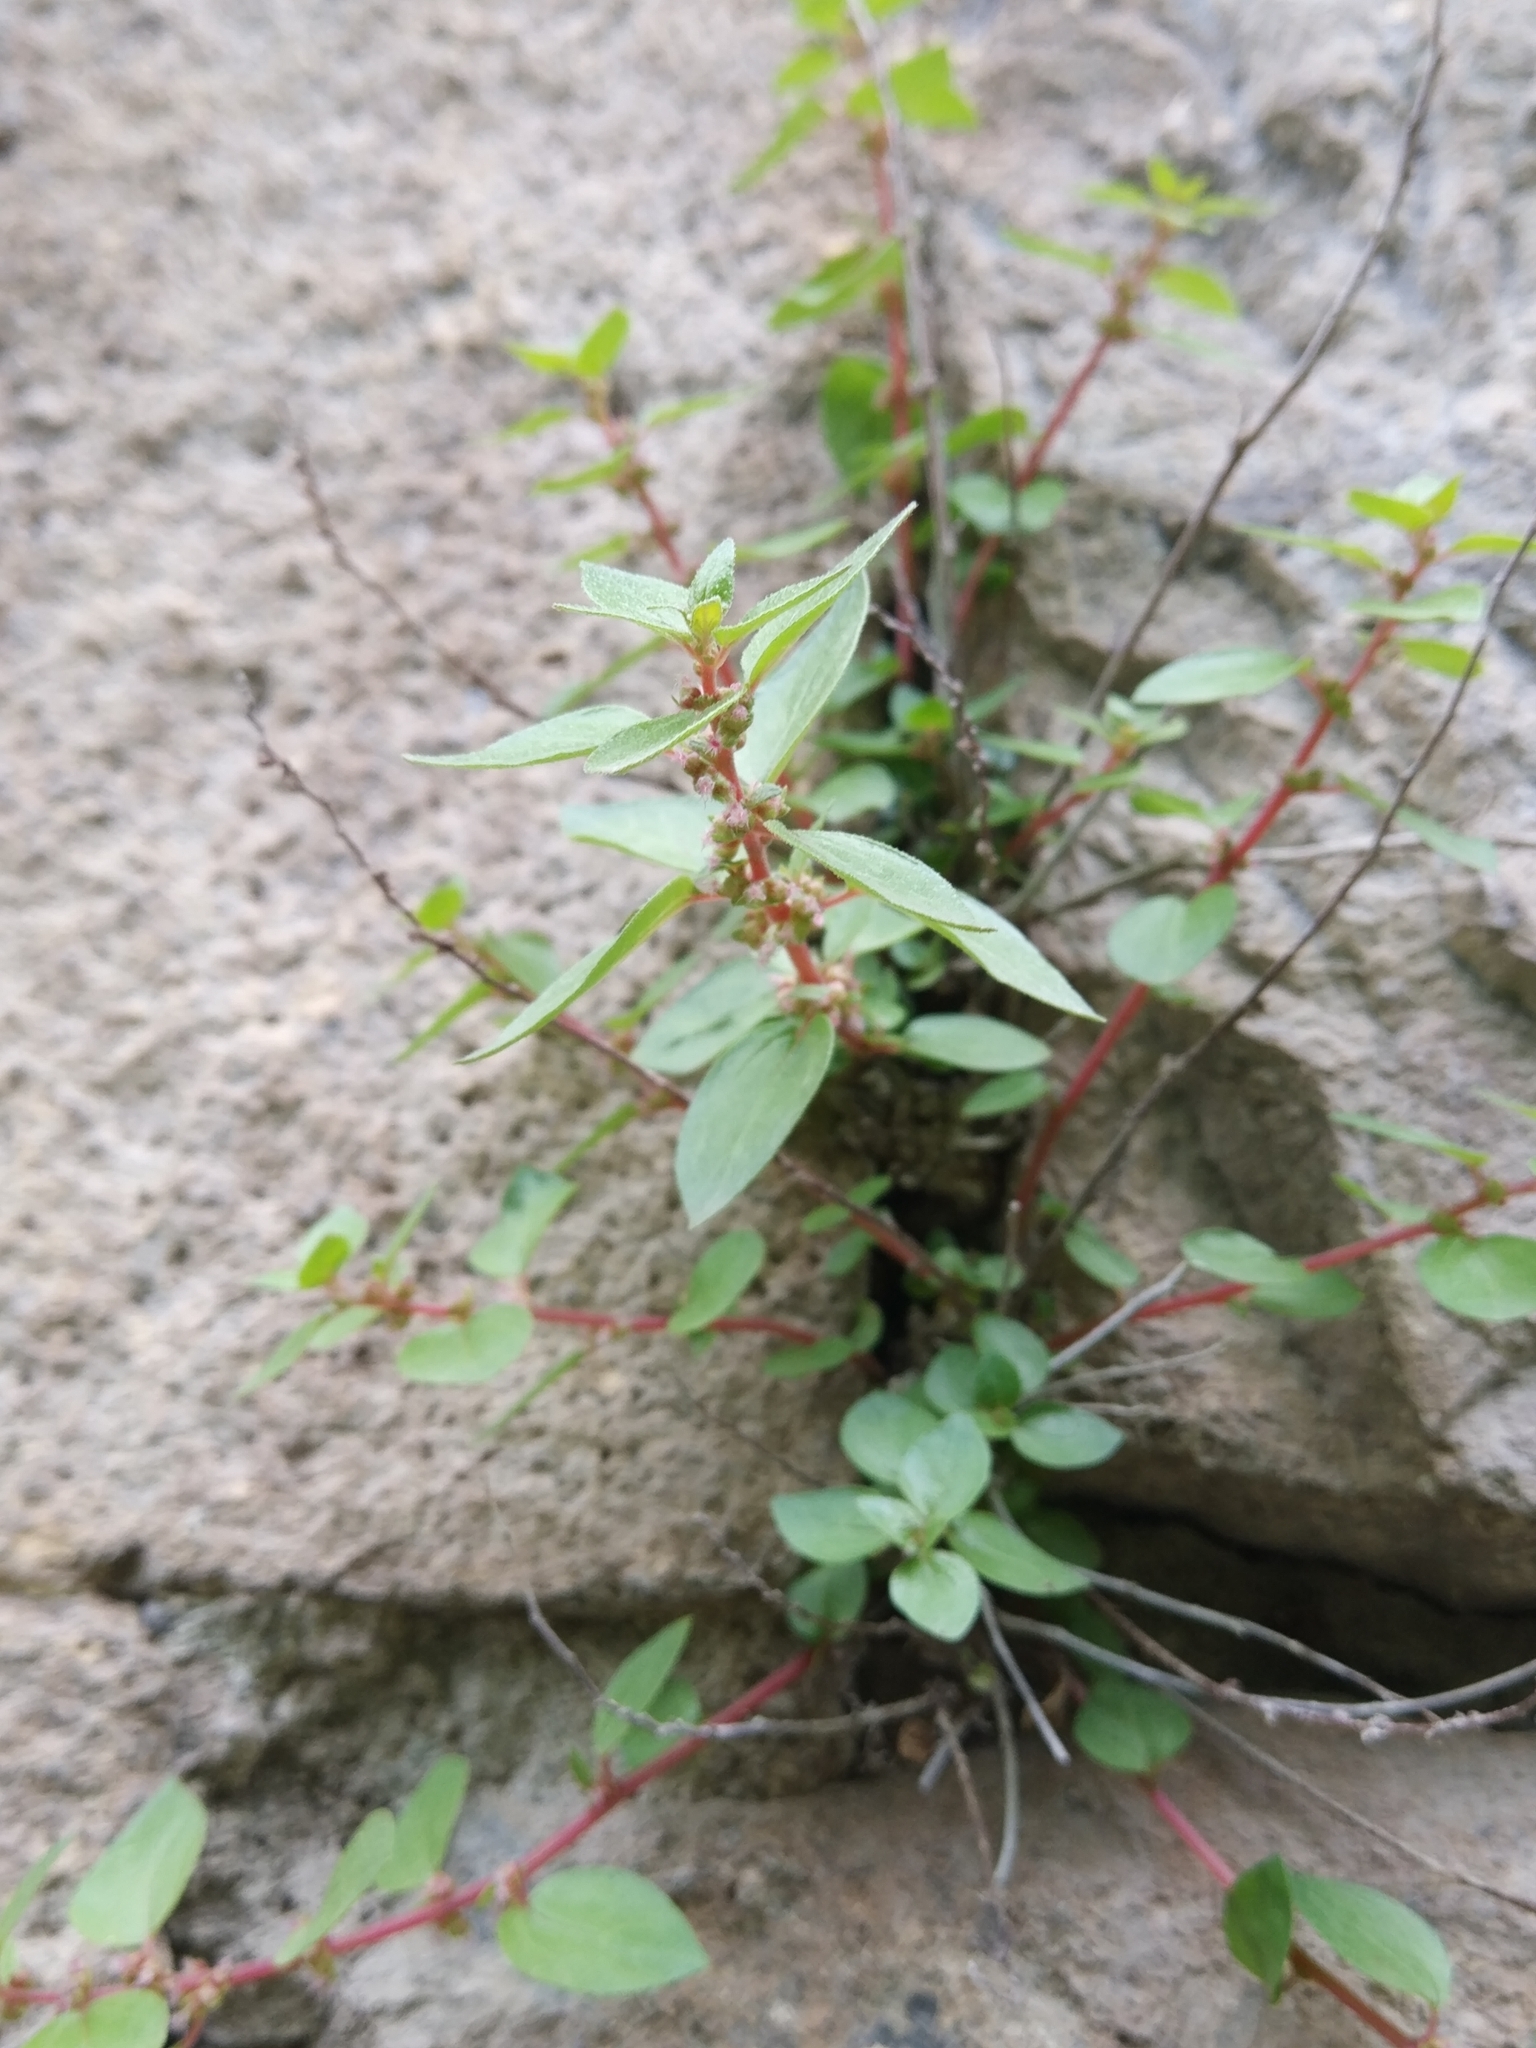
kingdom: Plantae
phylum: Tracheophyta
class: Magnoliopsida
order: Rosales
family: Urticaceae
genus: Parietaria
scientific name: Parietaria judaica
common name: Pellitory-of-the-wall
